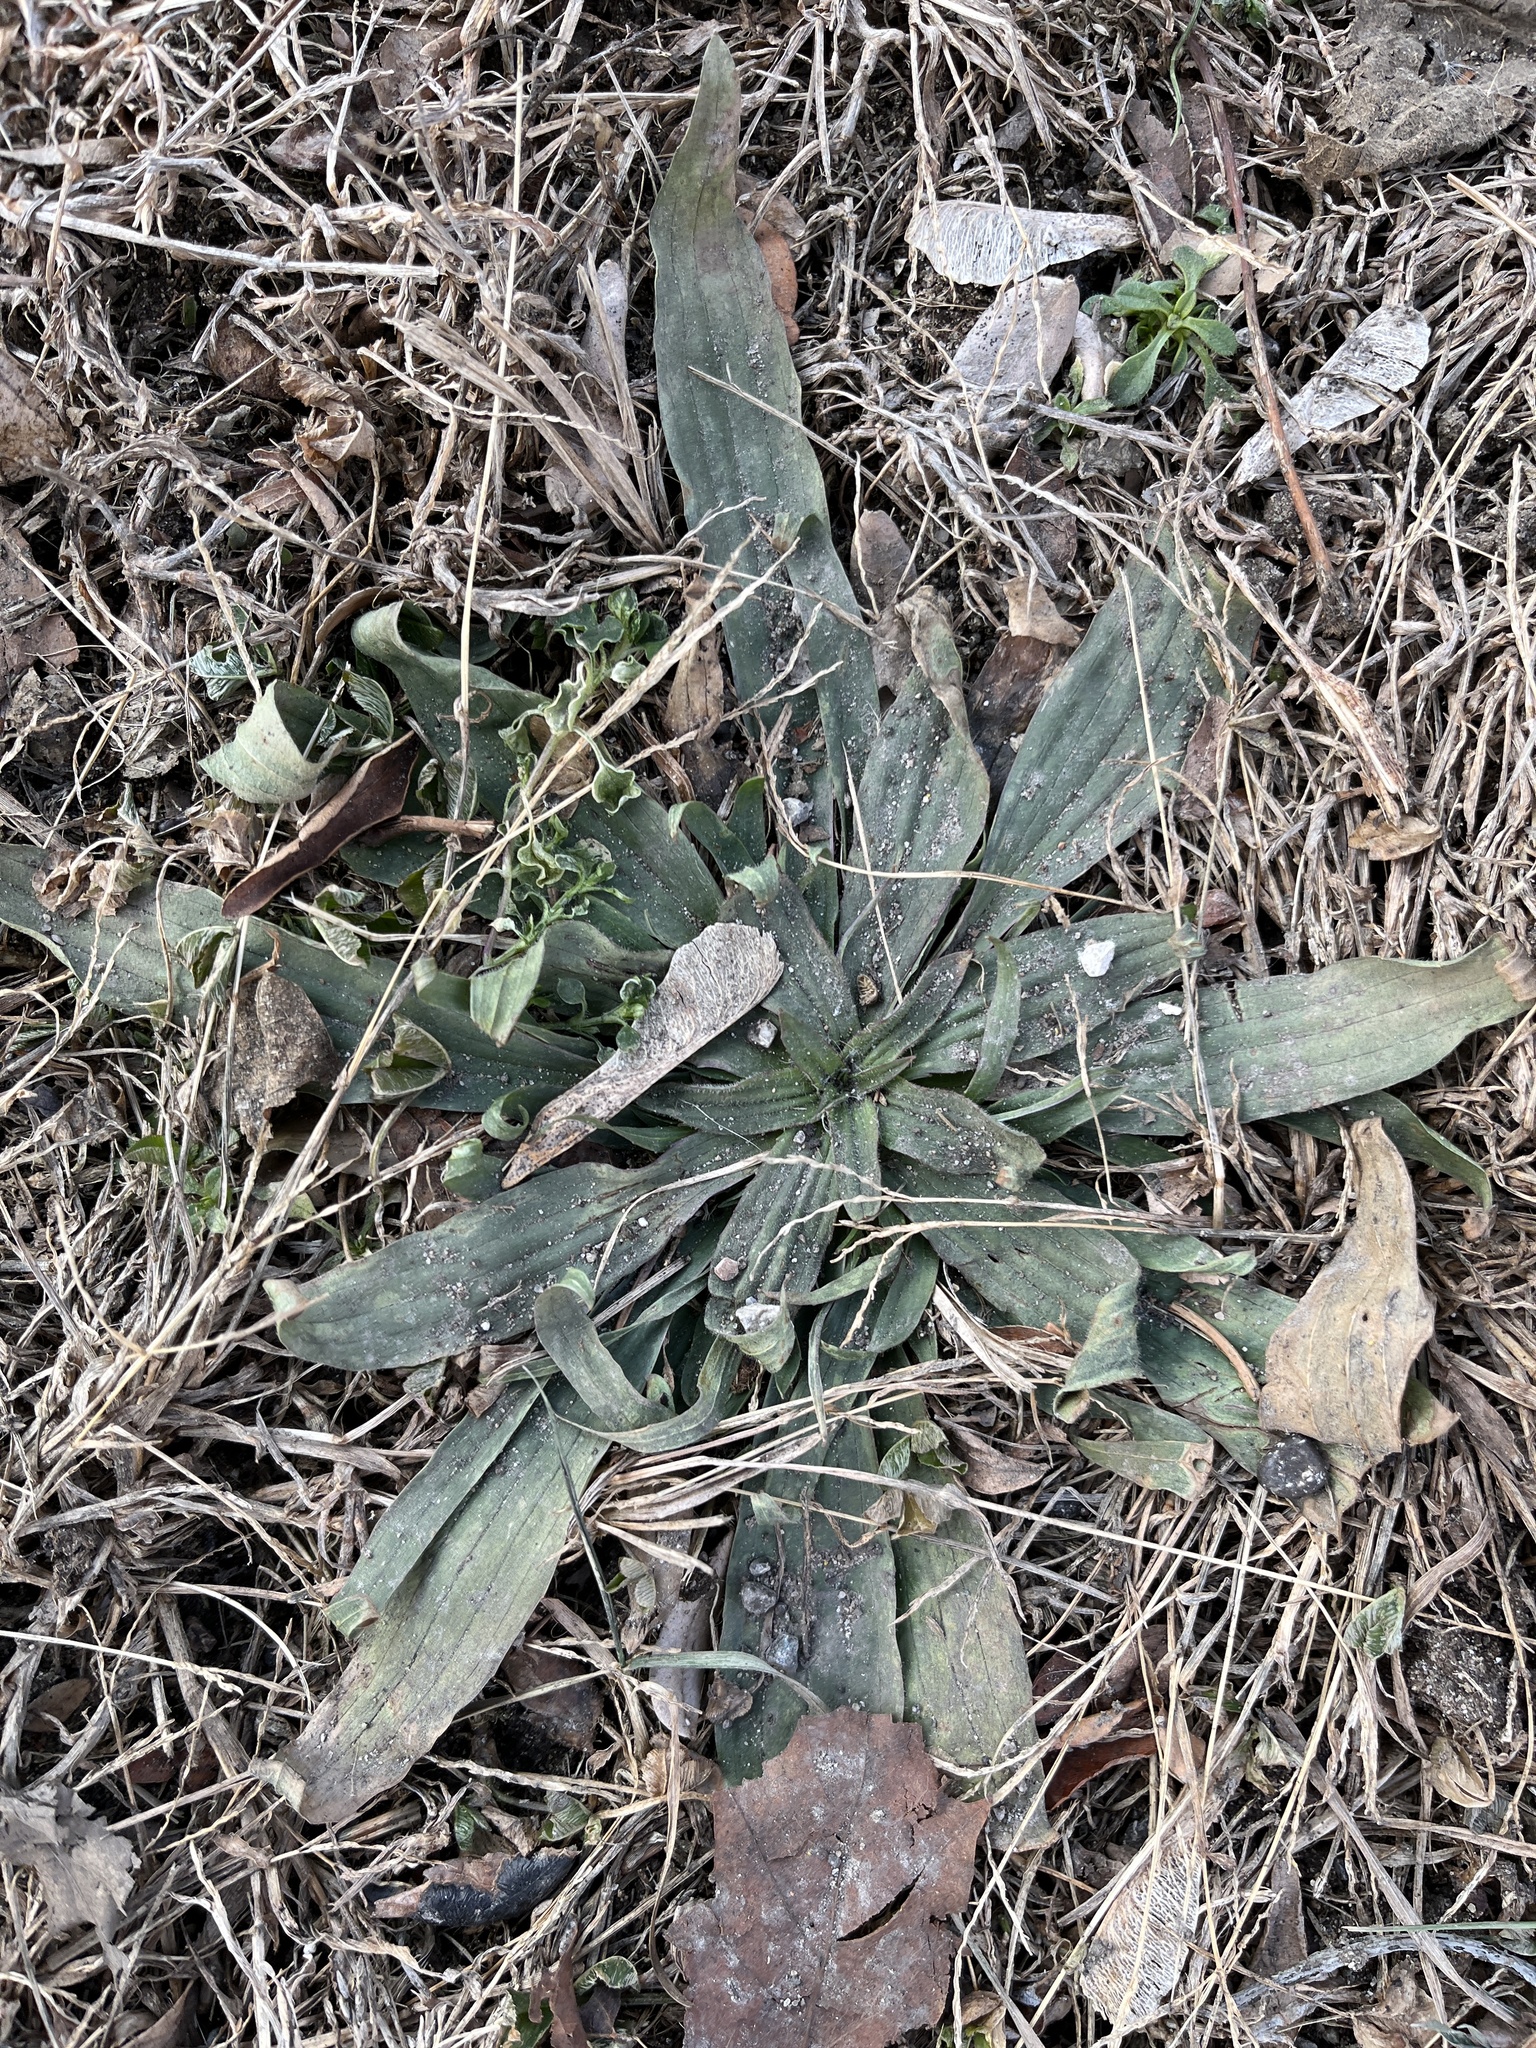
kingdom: Plantae
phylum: Tracheophyta
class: Magnoliopsida
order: Lamiales
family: Plantaginaceae
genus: Plantago
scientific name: Plantago lanceolata
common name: Ribwort plantain
